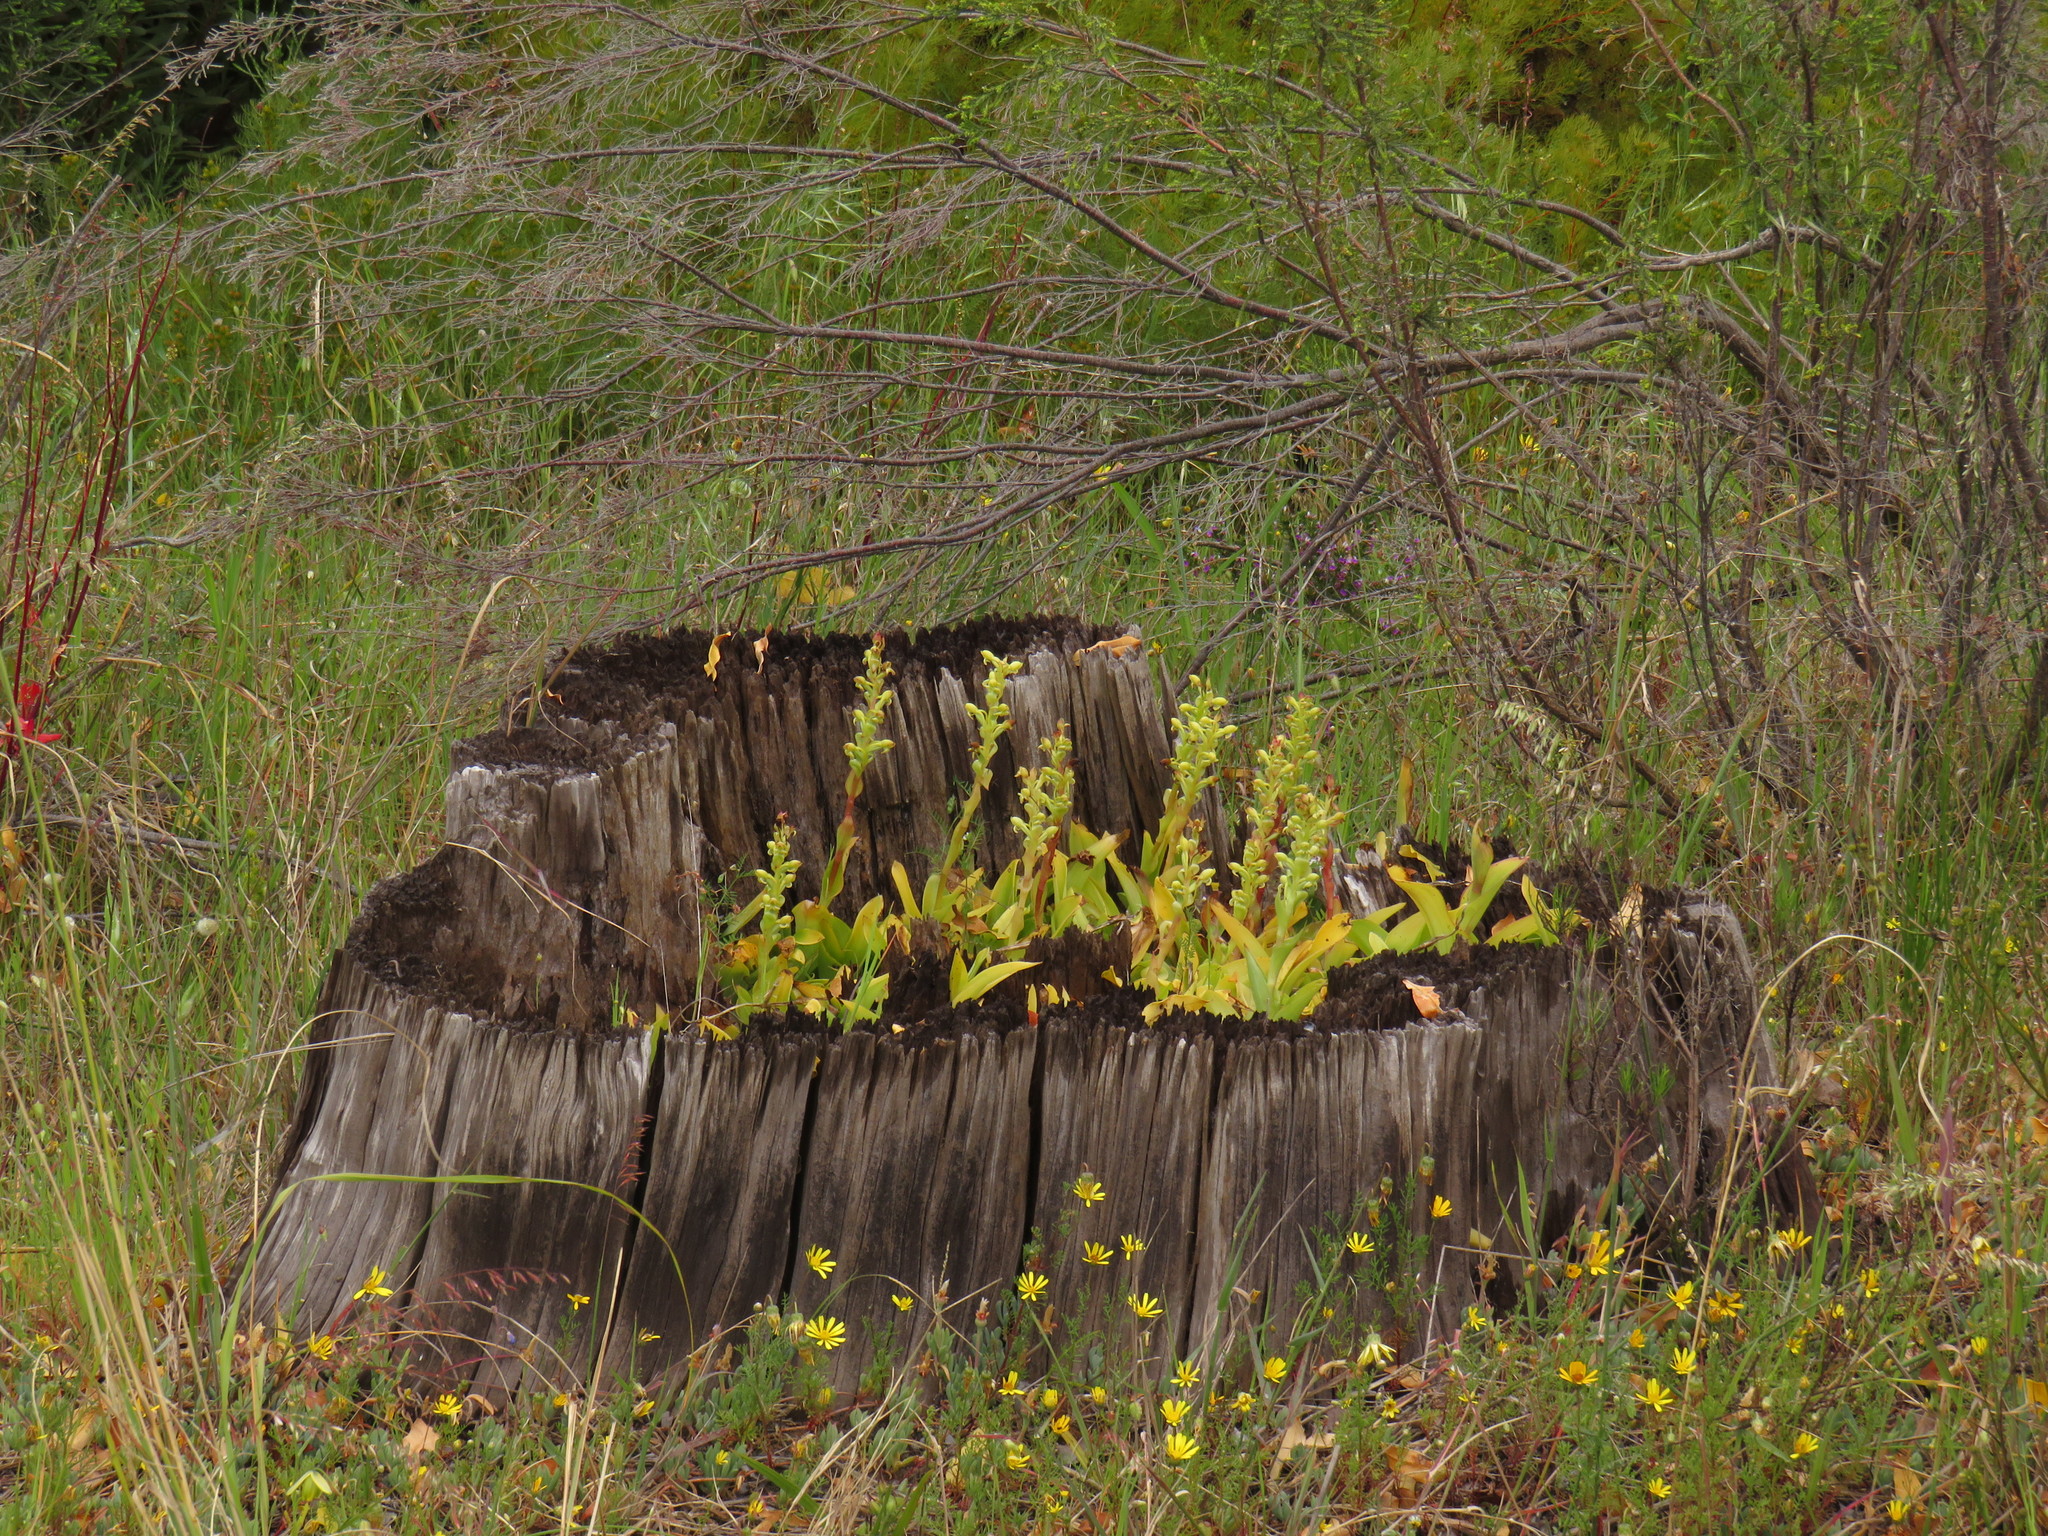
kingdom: Plantae
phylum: Tracheophyta
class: Liliopsida
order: Asparagales
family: Orchidaceae
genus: Satyrium
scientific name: Satyrium odorum
